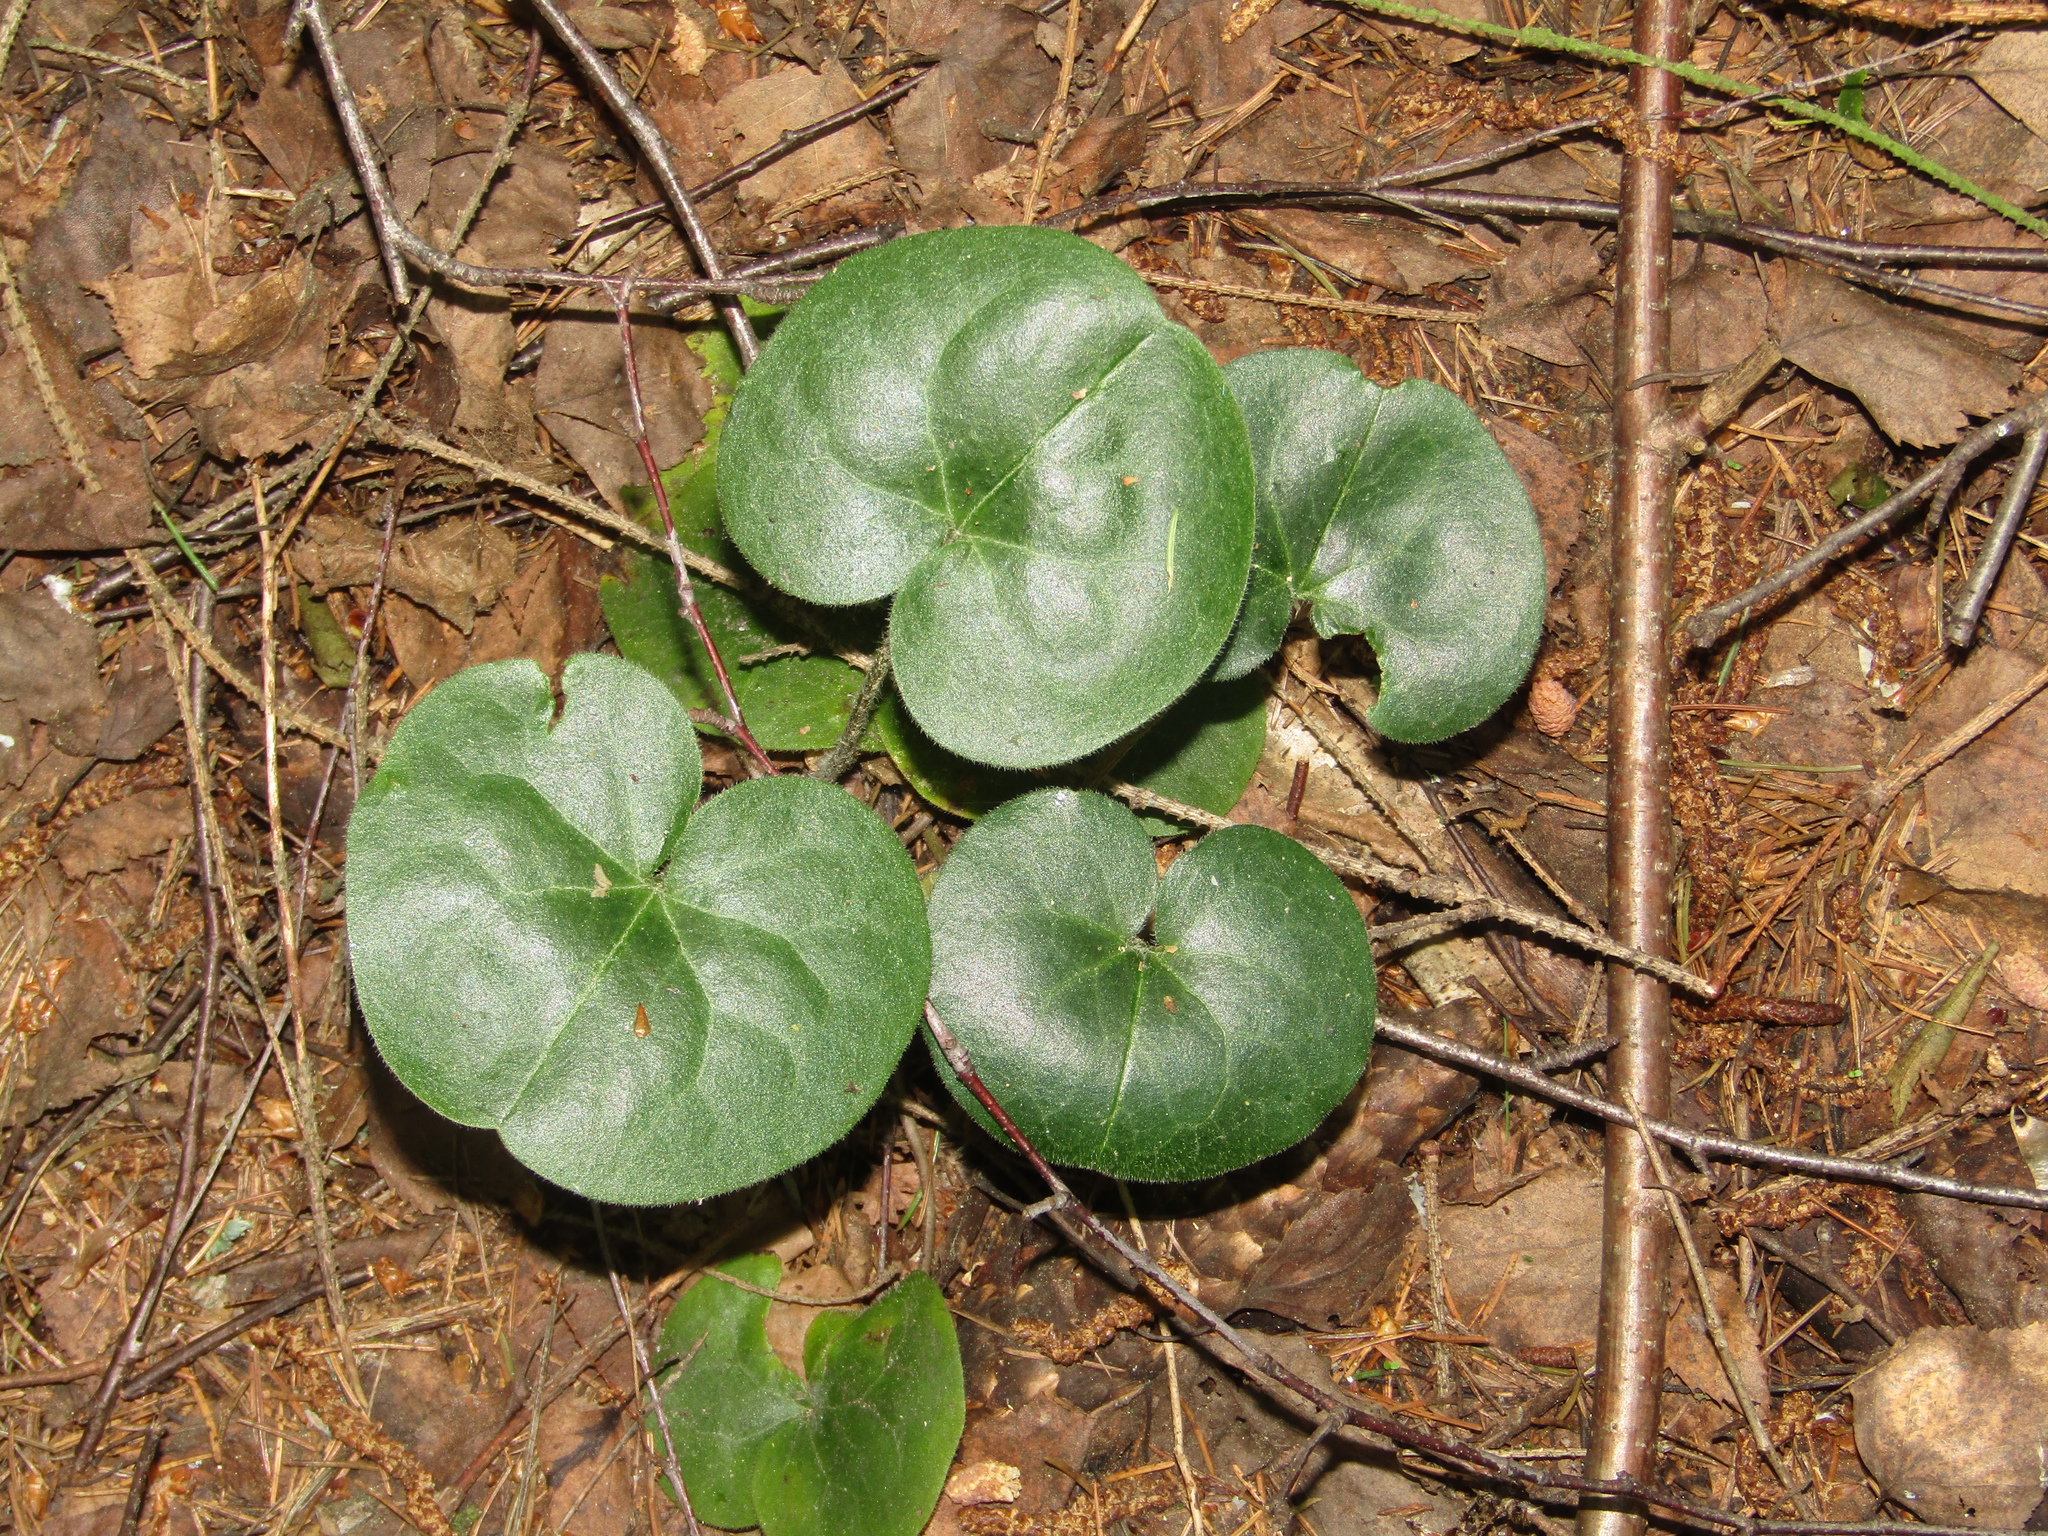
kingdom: Plantae
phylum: Tracheophyta
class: Magnoliopsida
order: Piperales
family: Aristolochiaceae
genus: Asarum
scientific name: Asarum europaeum
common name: Asarabacca
